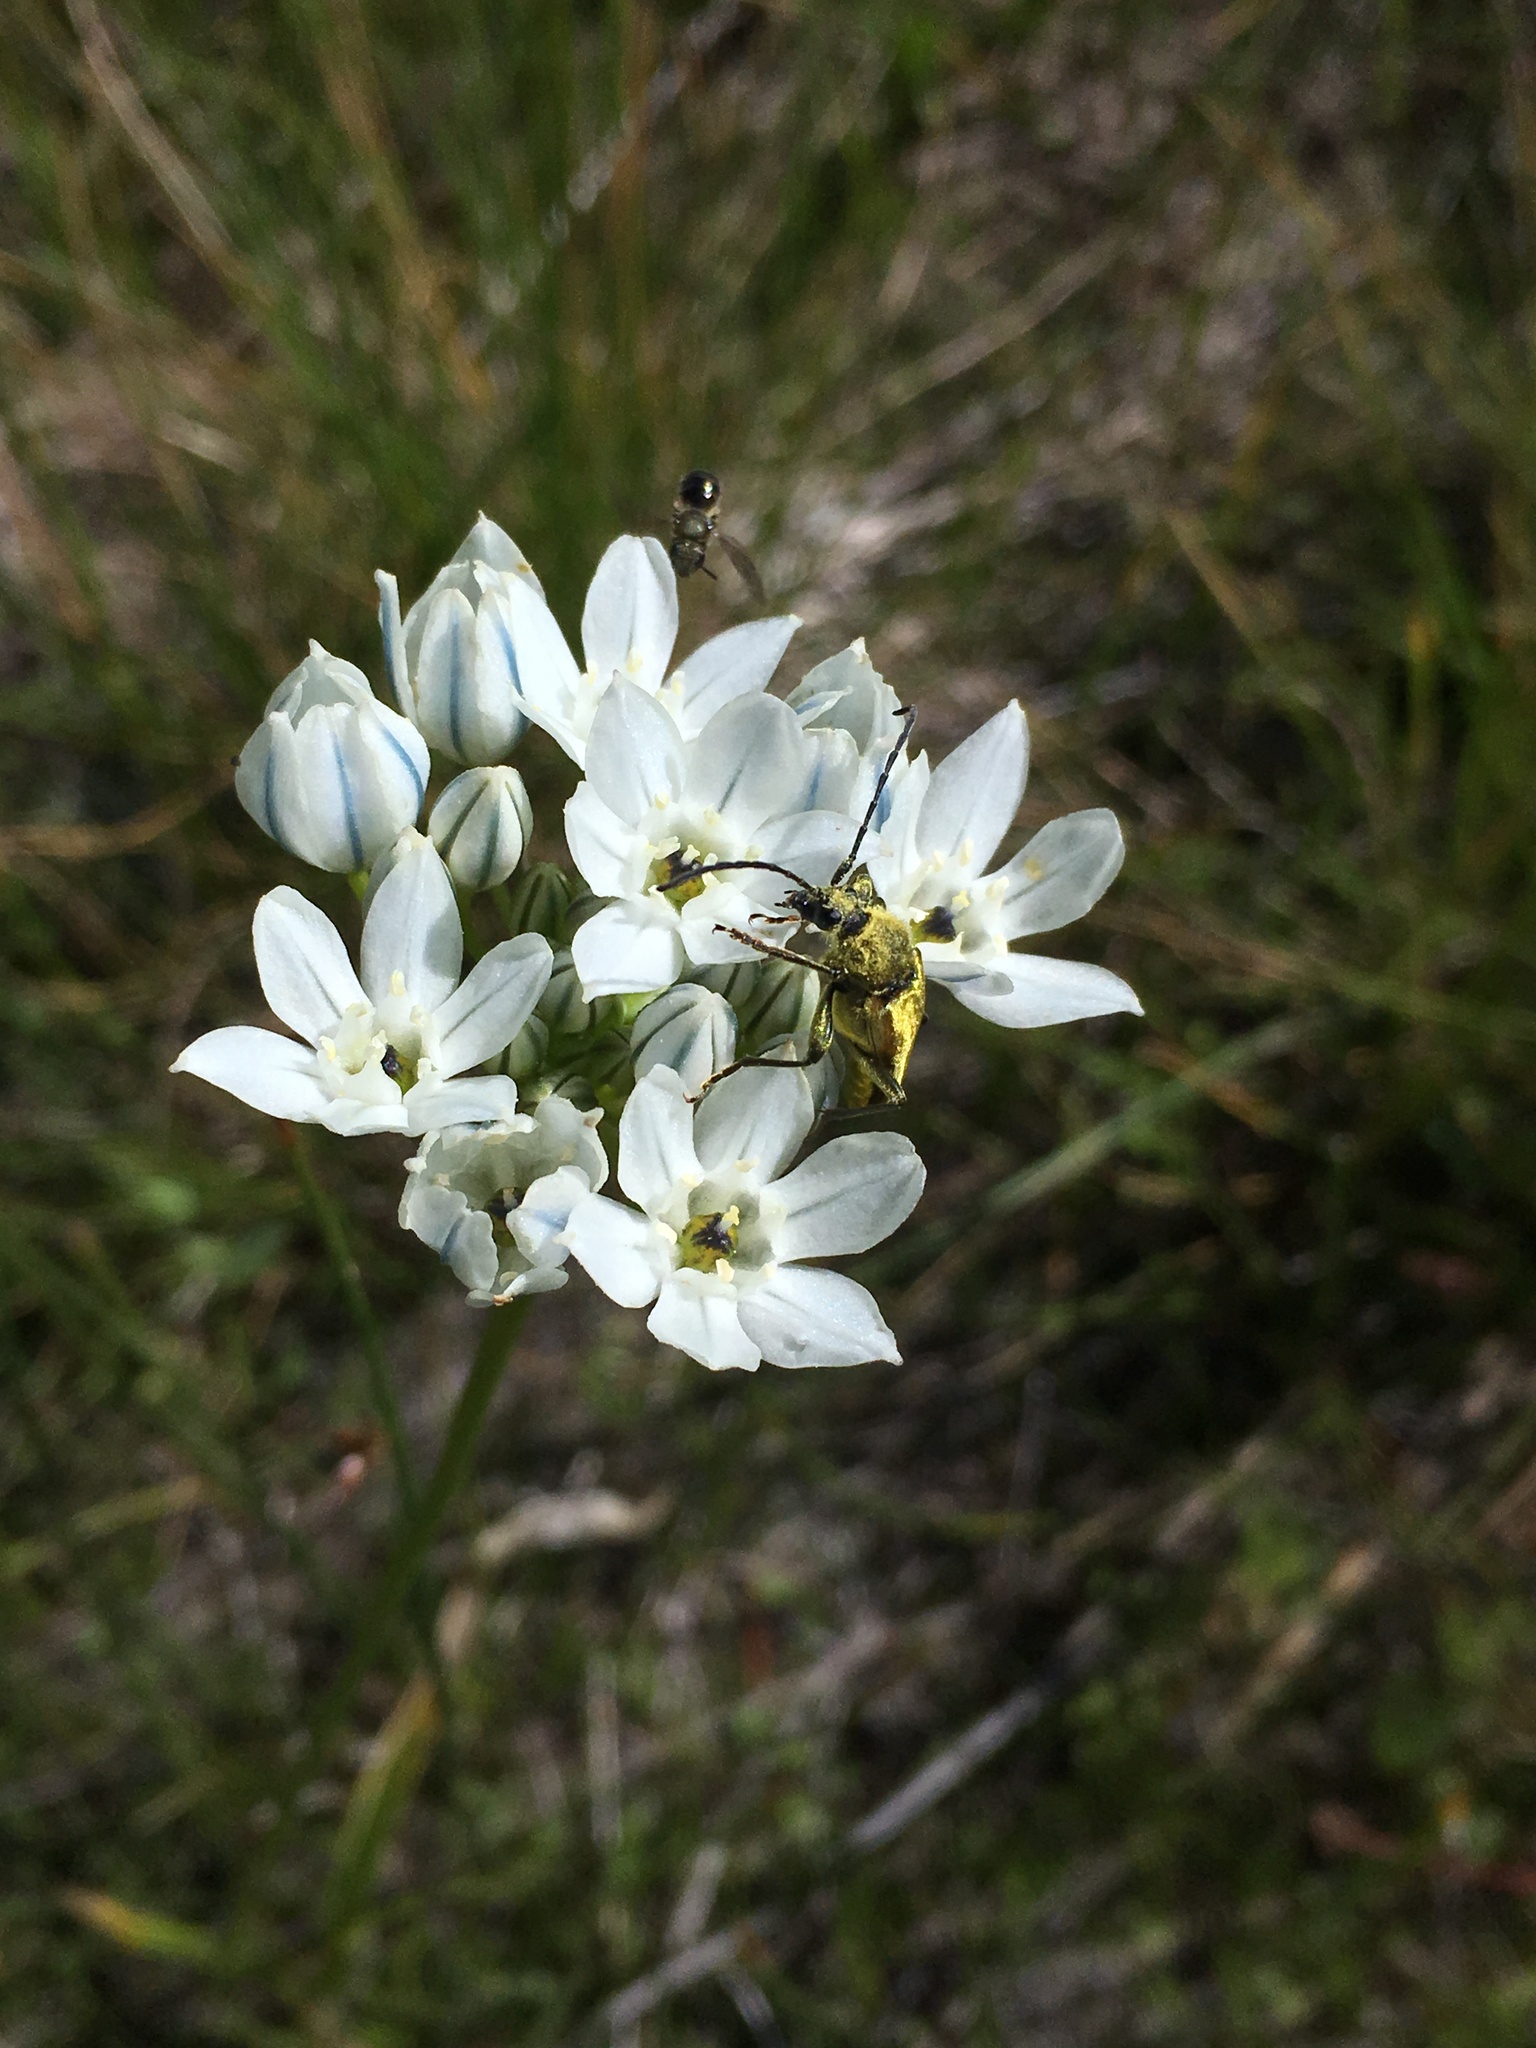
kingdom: Plantae
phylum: Tracheophyta
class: Liliopsida
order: Asparagales
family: Asparagaceae
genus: Triteleia
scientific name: Triteleia hyacinthina
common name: White brodiaea
